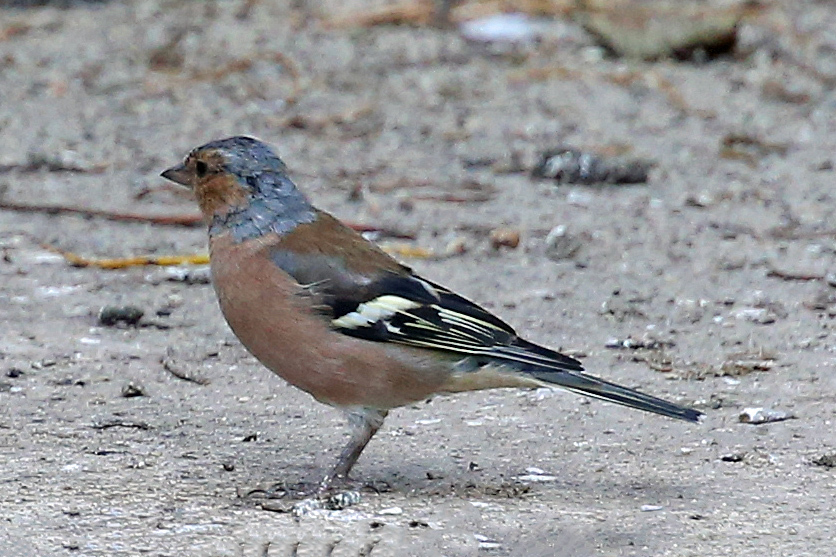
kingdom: Animalia
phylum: Chordata
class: Aves
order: Passeriformes
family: Fringillidae
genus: Fringilla
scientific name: Fringilla coelebs
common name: Common chaffinch
